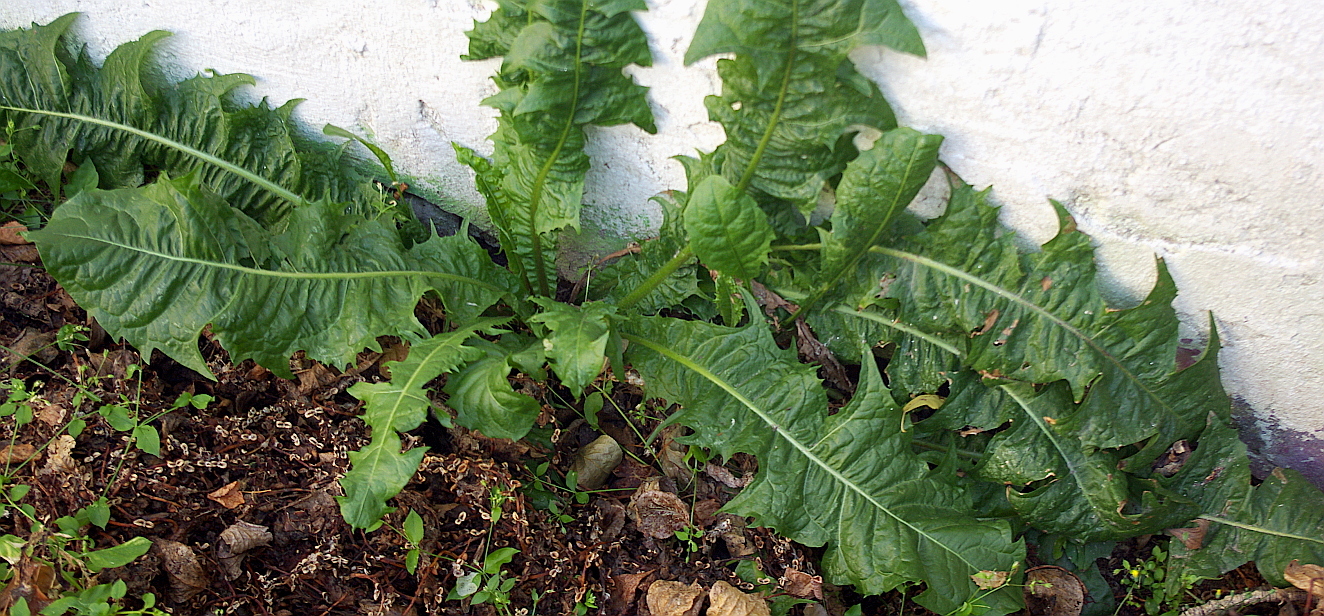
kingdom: Plantae
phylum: Tracheophyta
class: Magnoliopsida
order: Asterales
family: Asteraceae
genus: Taraxacum
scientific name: Taraxacum officinale
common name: Common dandelion
